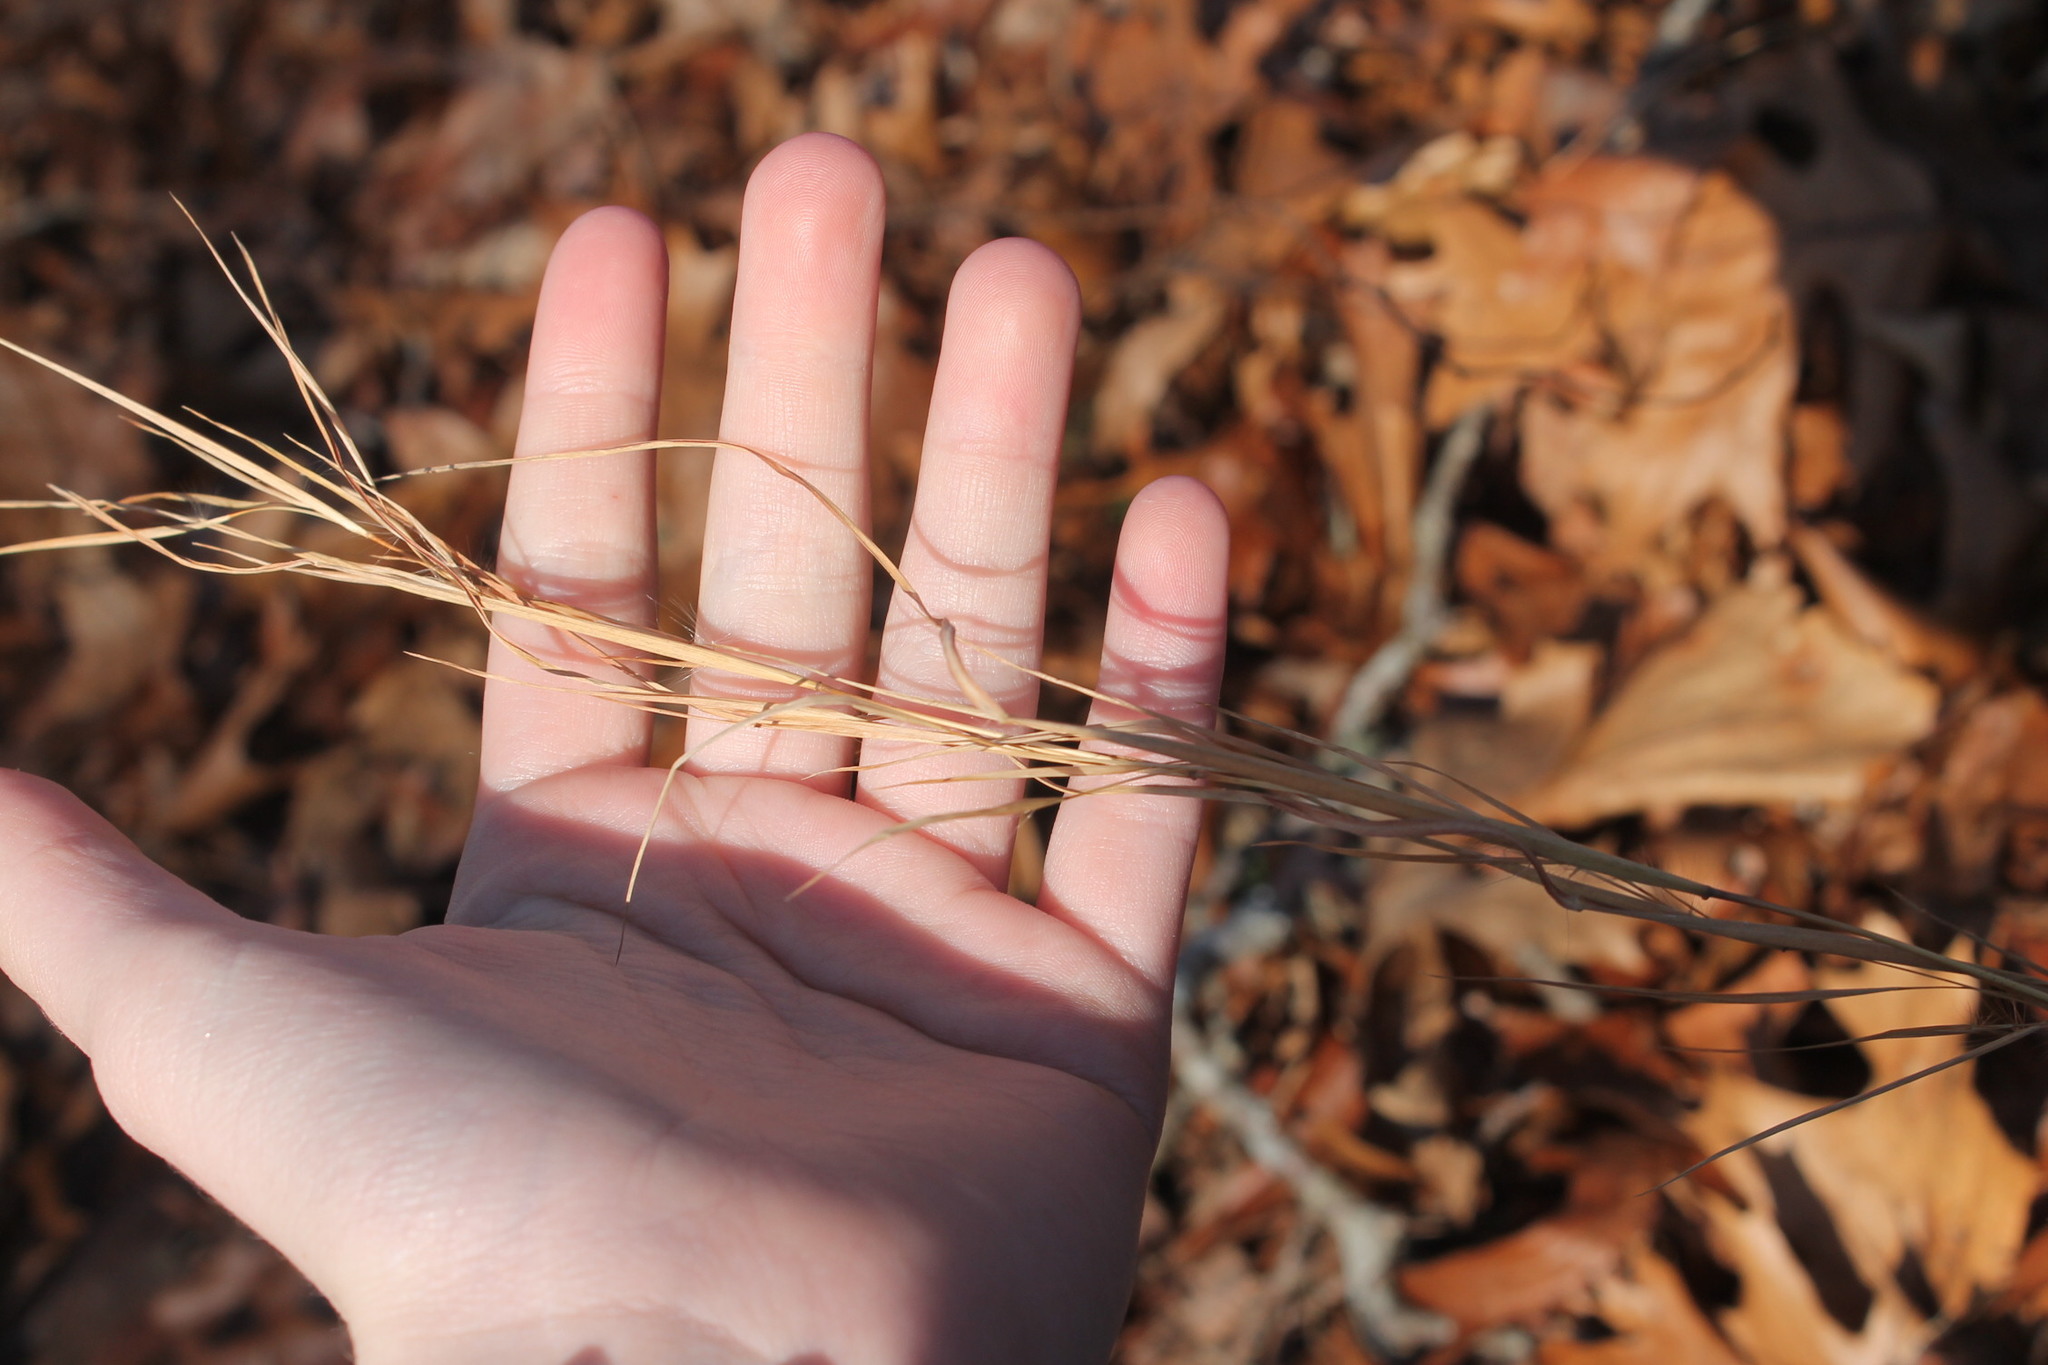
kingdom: Plantae
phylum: Tracheophyta
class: Liliopsida
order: Poales
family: Poaceae
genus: Andropogon
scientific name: Andropogon virginicus
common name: Broomsedge bluestem
